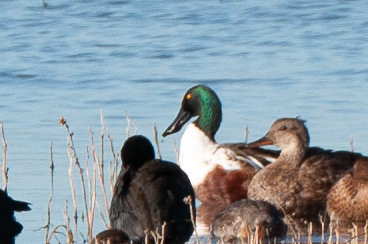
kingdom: Animalia
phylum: Chordata
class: Aves
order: Anseriformes
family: Anatidae
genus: Spatula
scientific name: Spatula clypeata
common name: Northern shoveler
